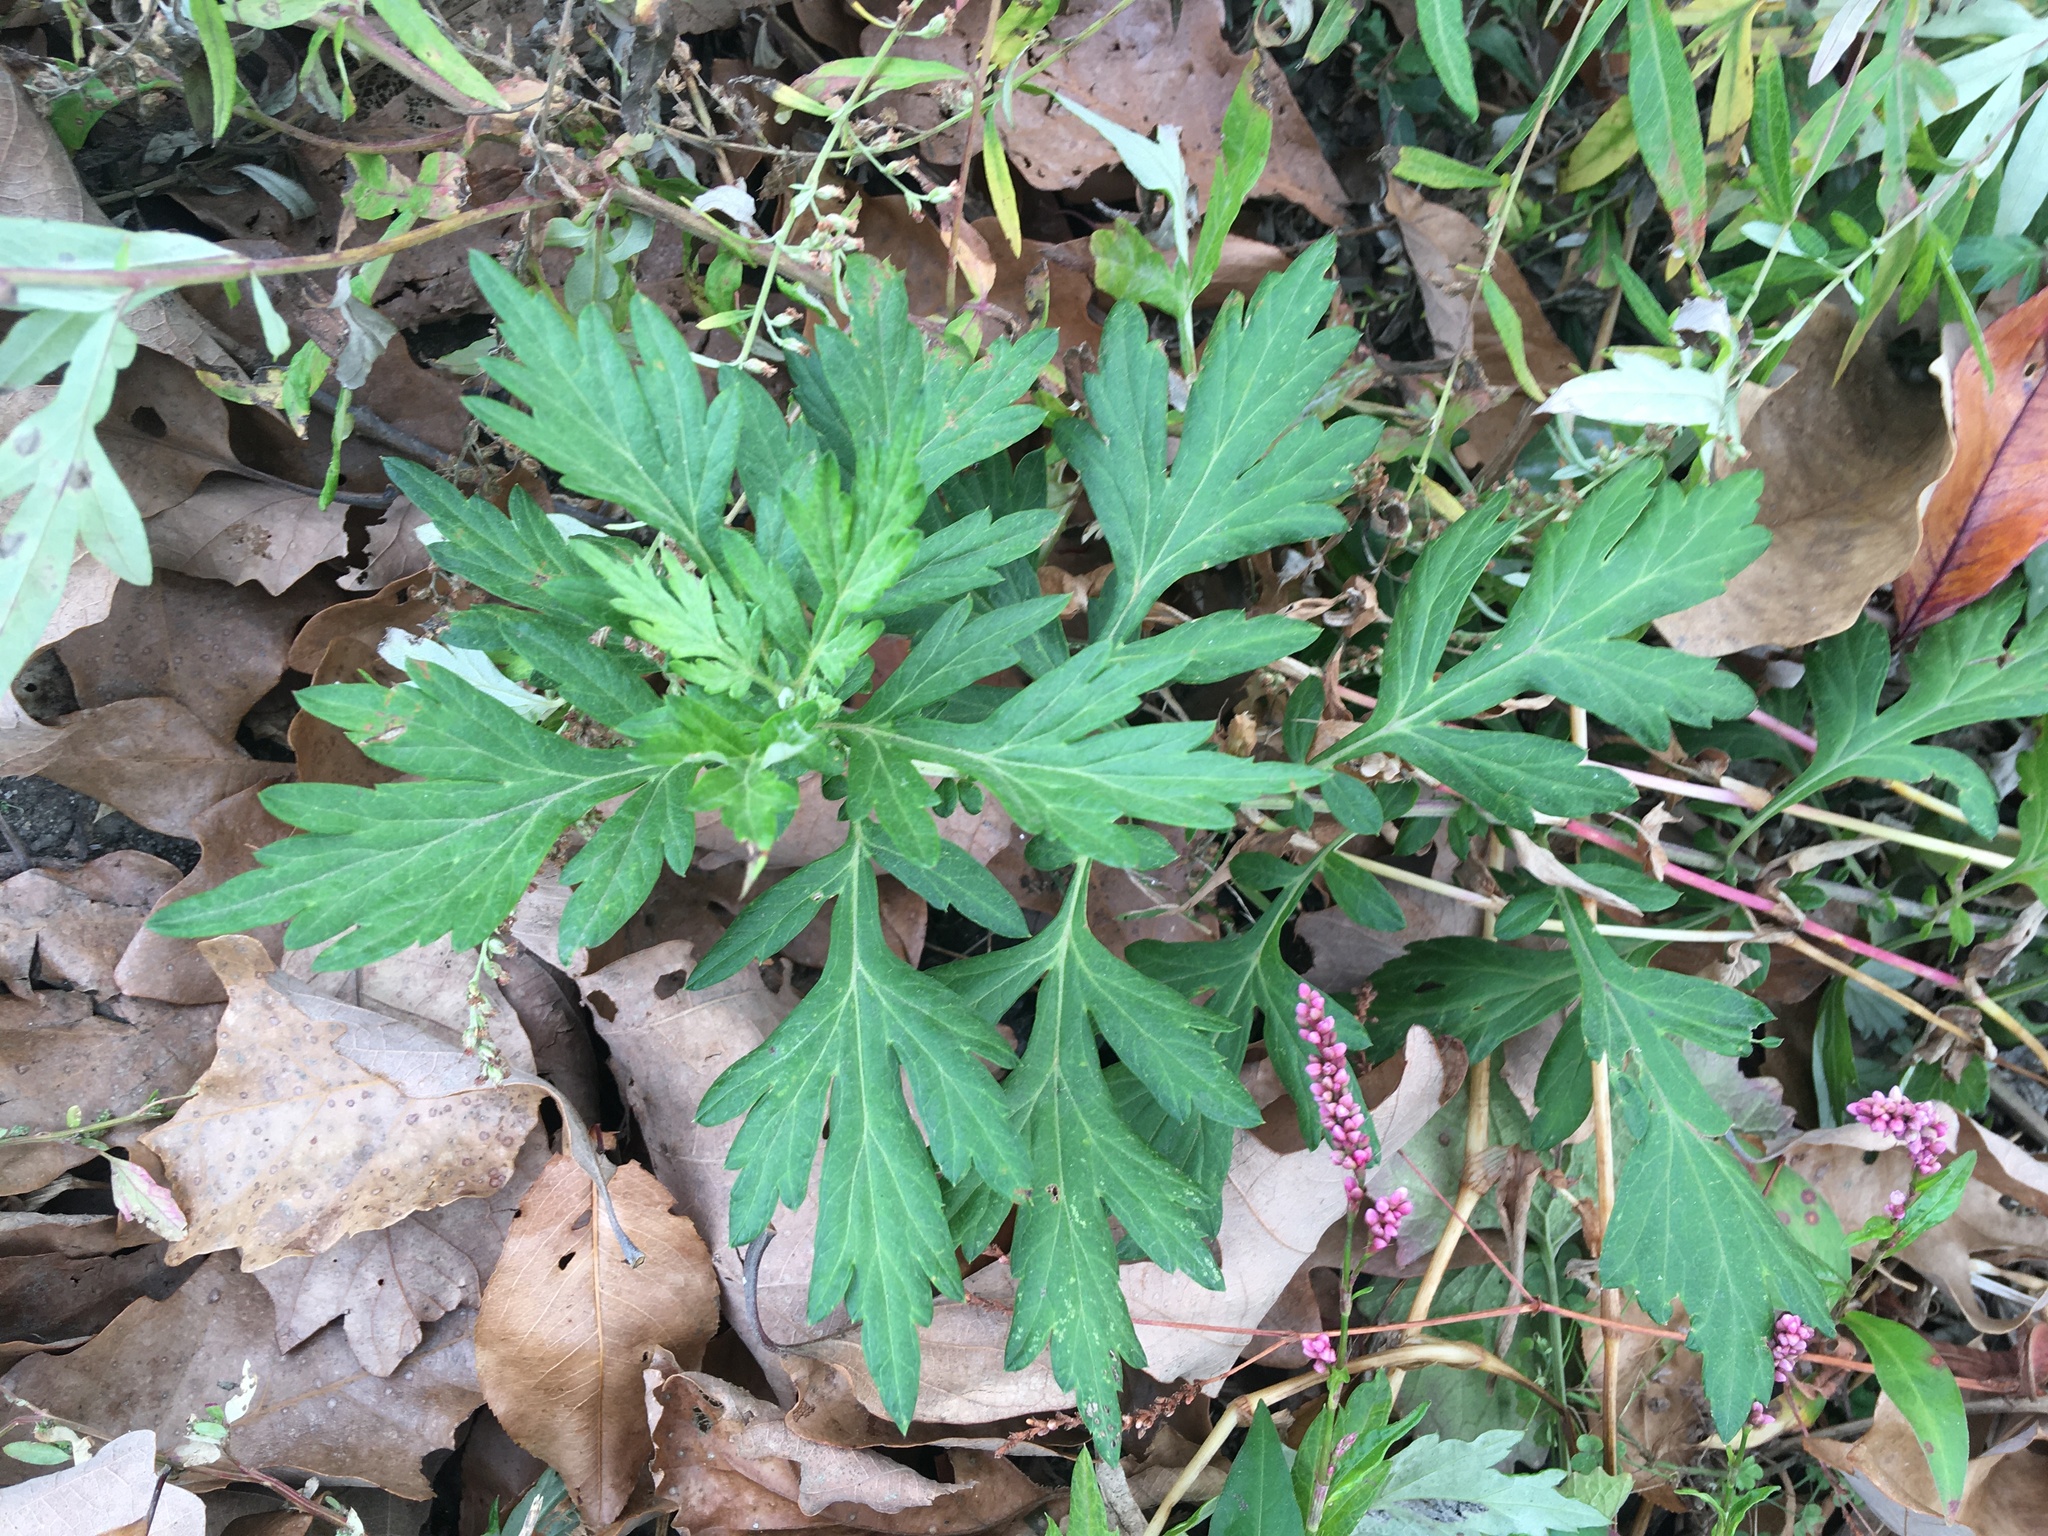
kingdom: Plantae
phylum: Tracheophyta
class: Magnoliopsida
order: Asterales
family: Asteraceae
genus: Artemisia
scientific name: Artemisia vulgaris
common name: Mugwort
